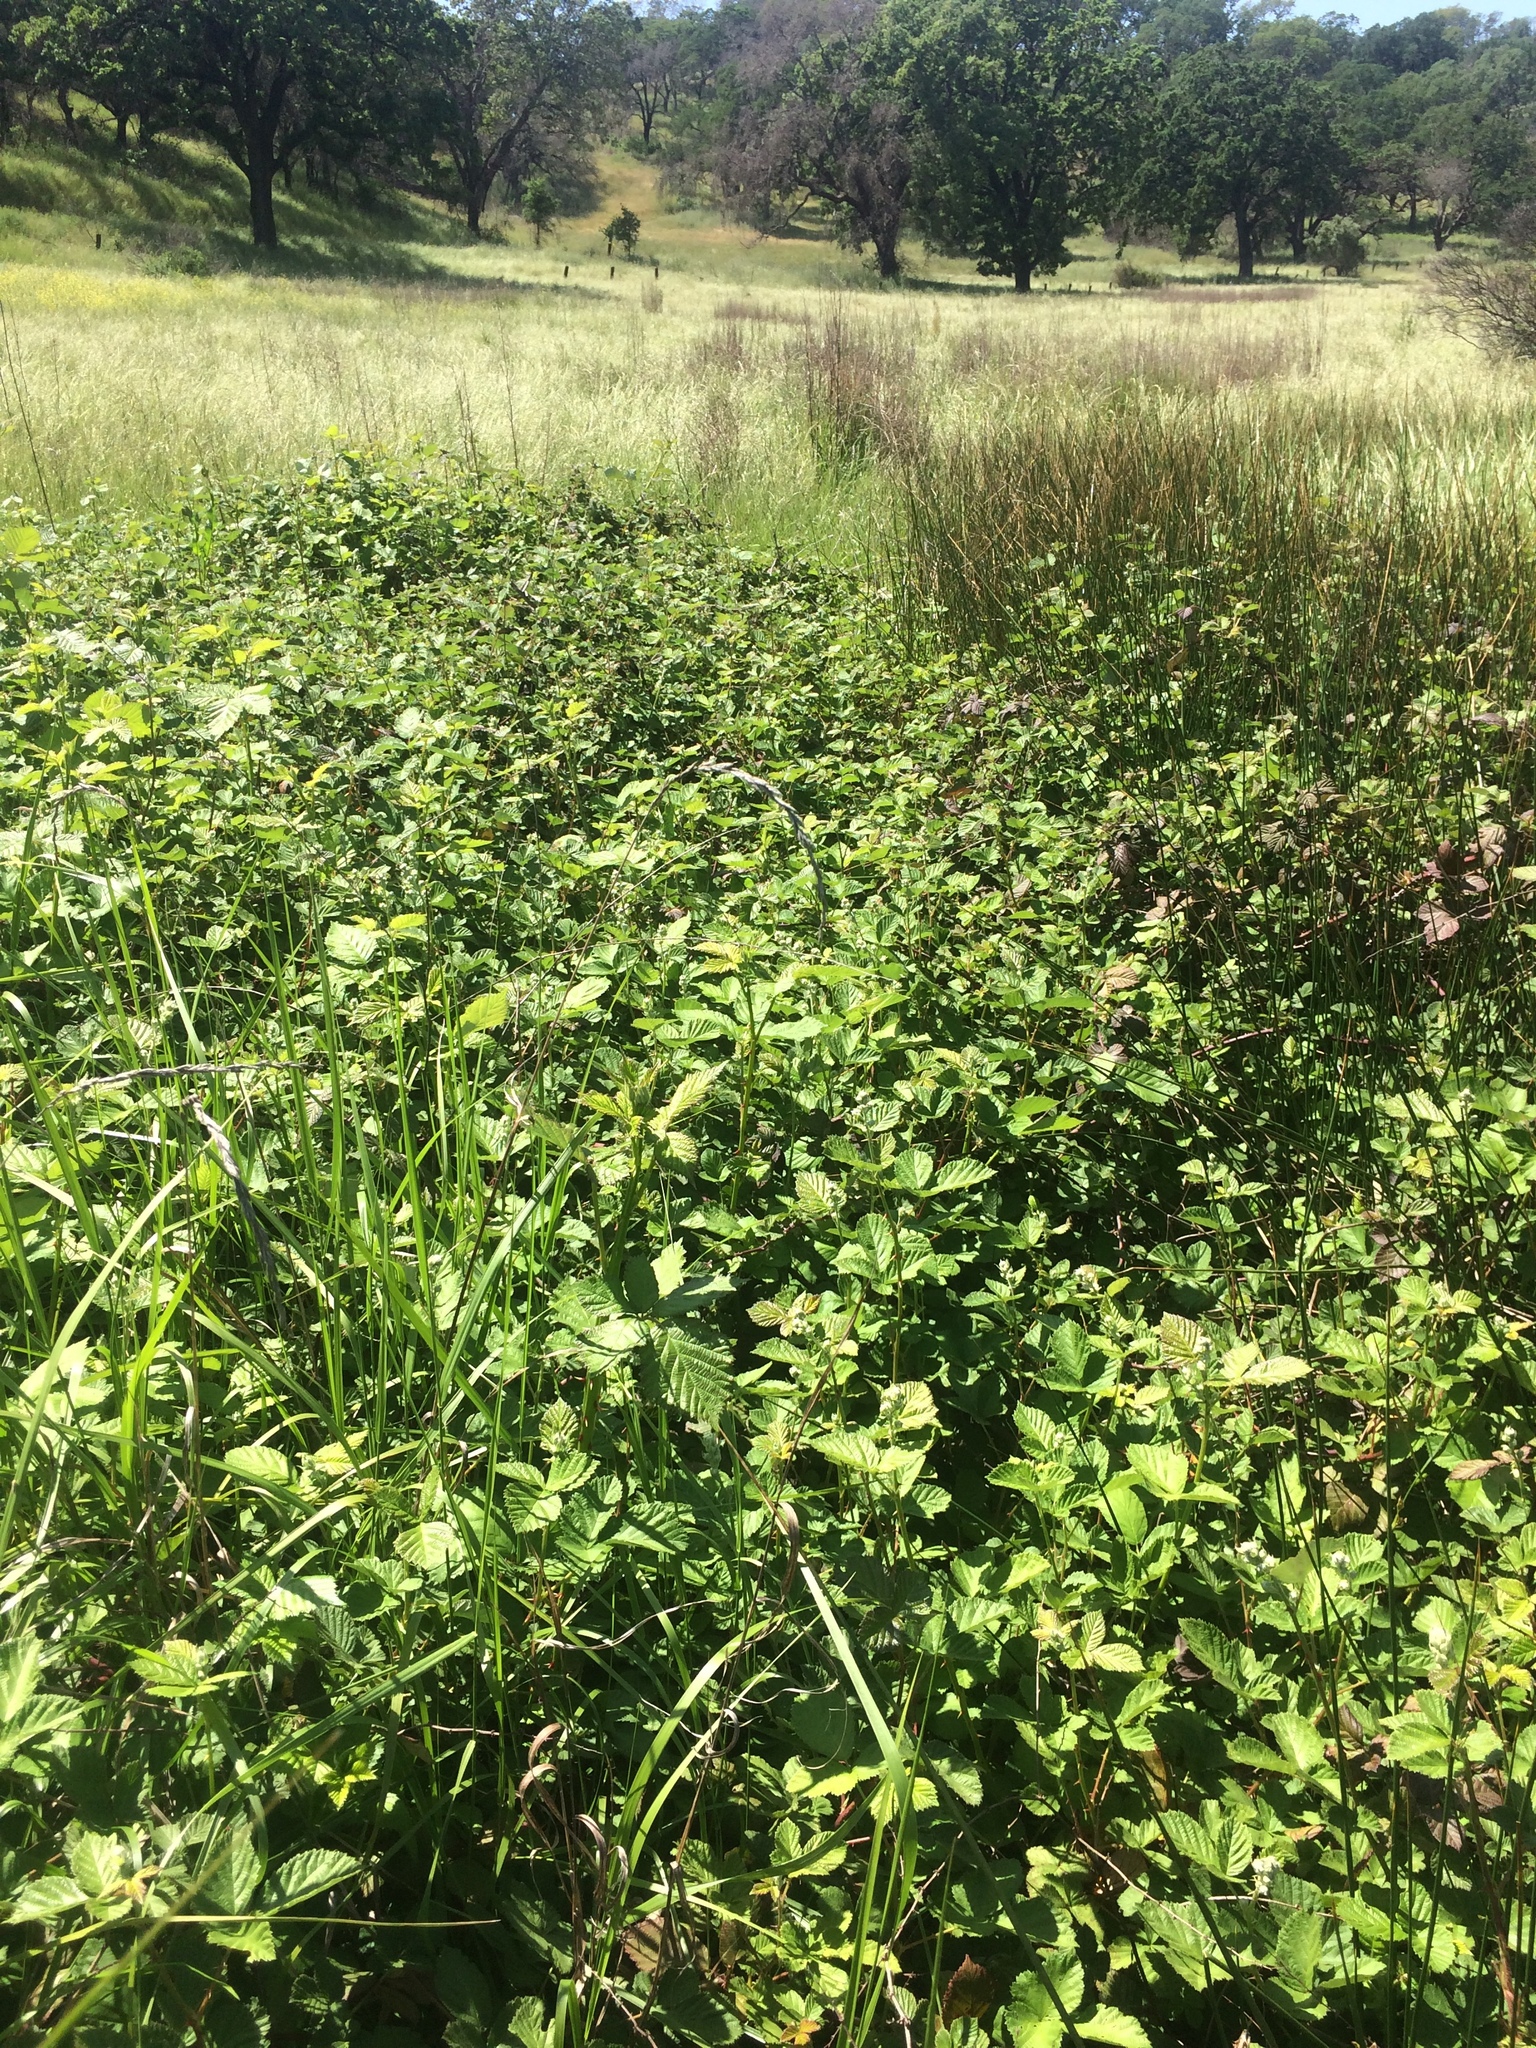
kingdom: Plantae
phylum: Tracheophyta
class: Magnoliopsida
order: Rosales
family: Rosaceae
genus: Rubus
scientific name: Rubus armeniacus
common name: Himalayan blackberry
